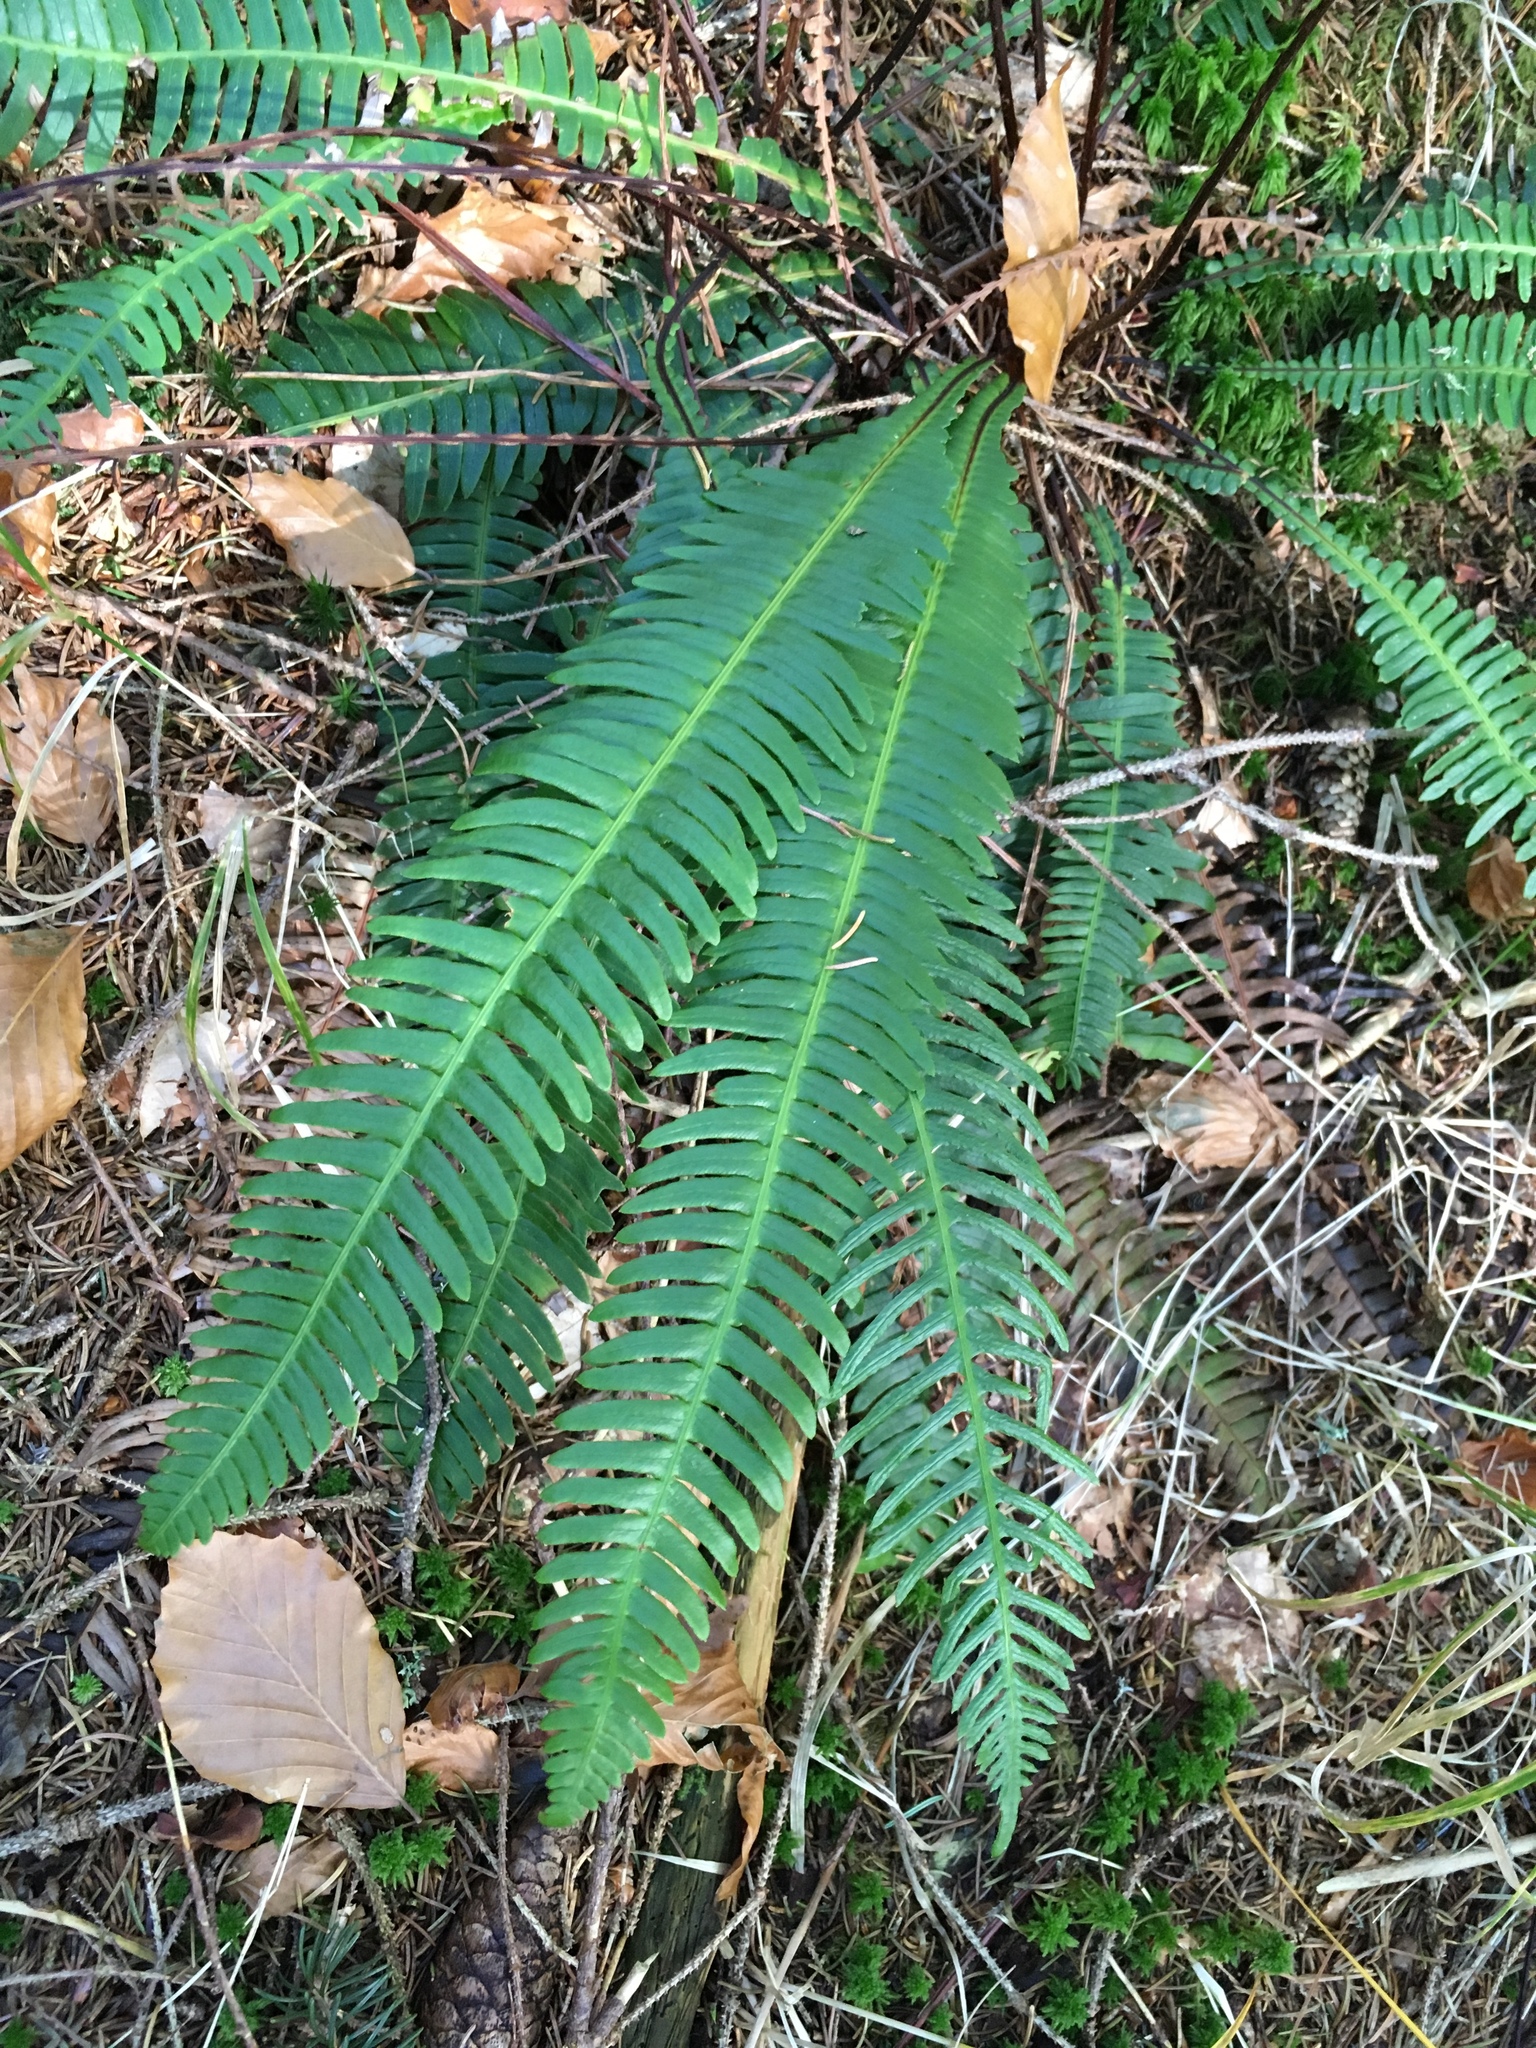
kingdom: Plantae
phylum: Tracheophyta
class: Polypodiopsida
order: Polypodiales
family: Blechnaceae
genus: Struthiopteris
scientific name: Struthiopteris spicant
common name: Deer fern
